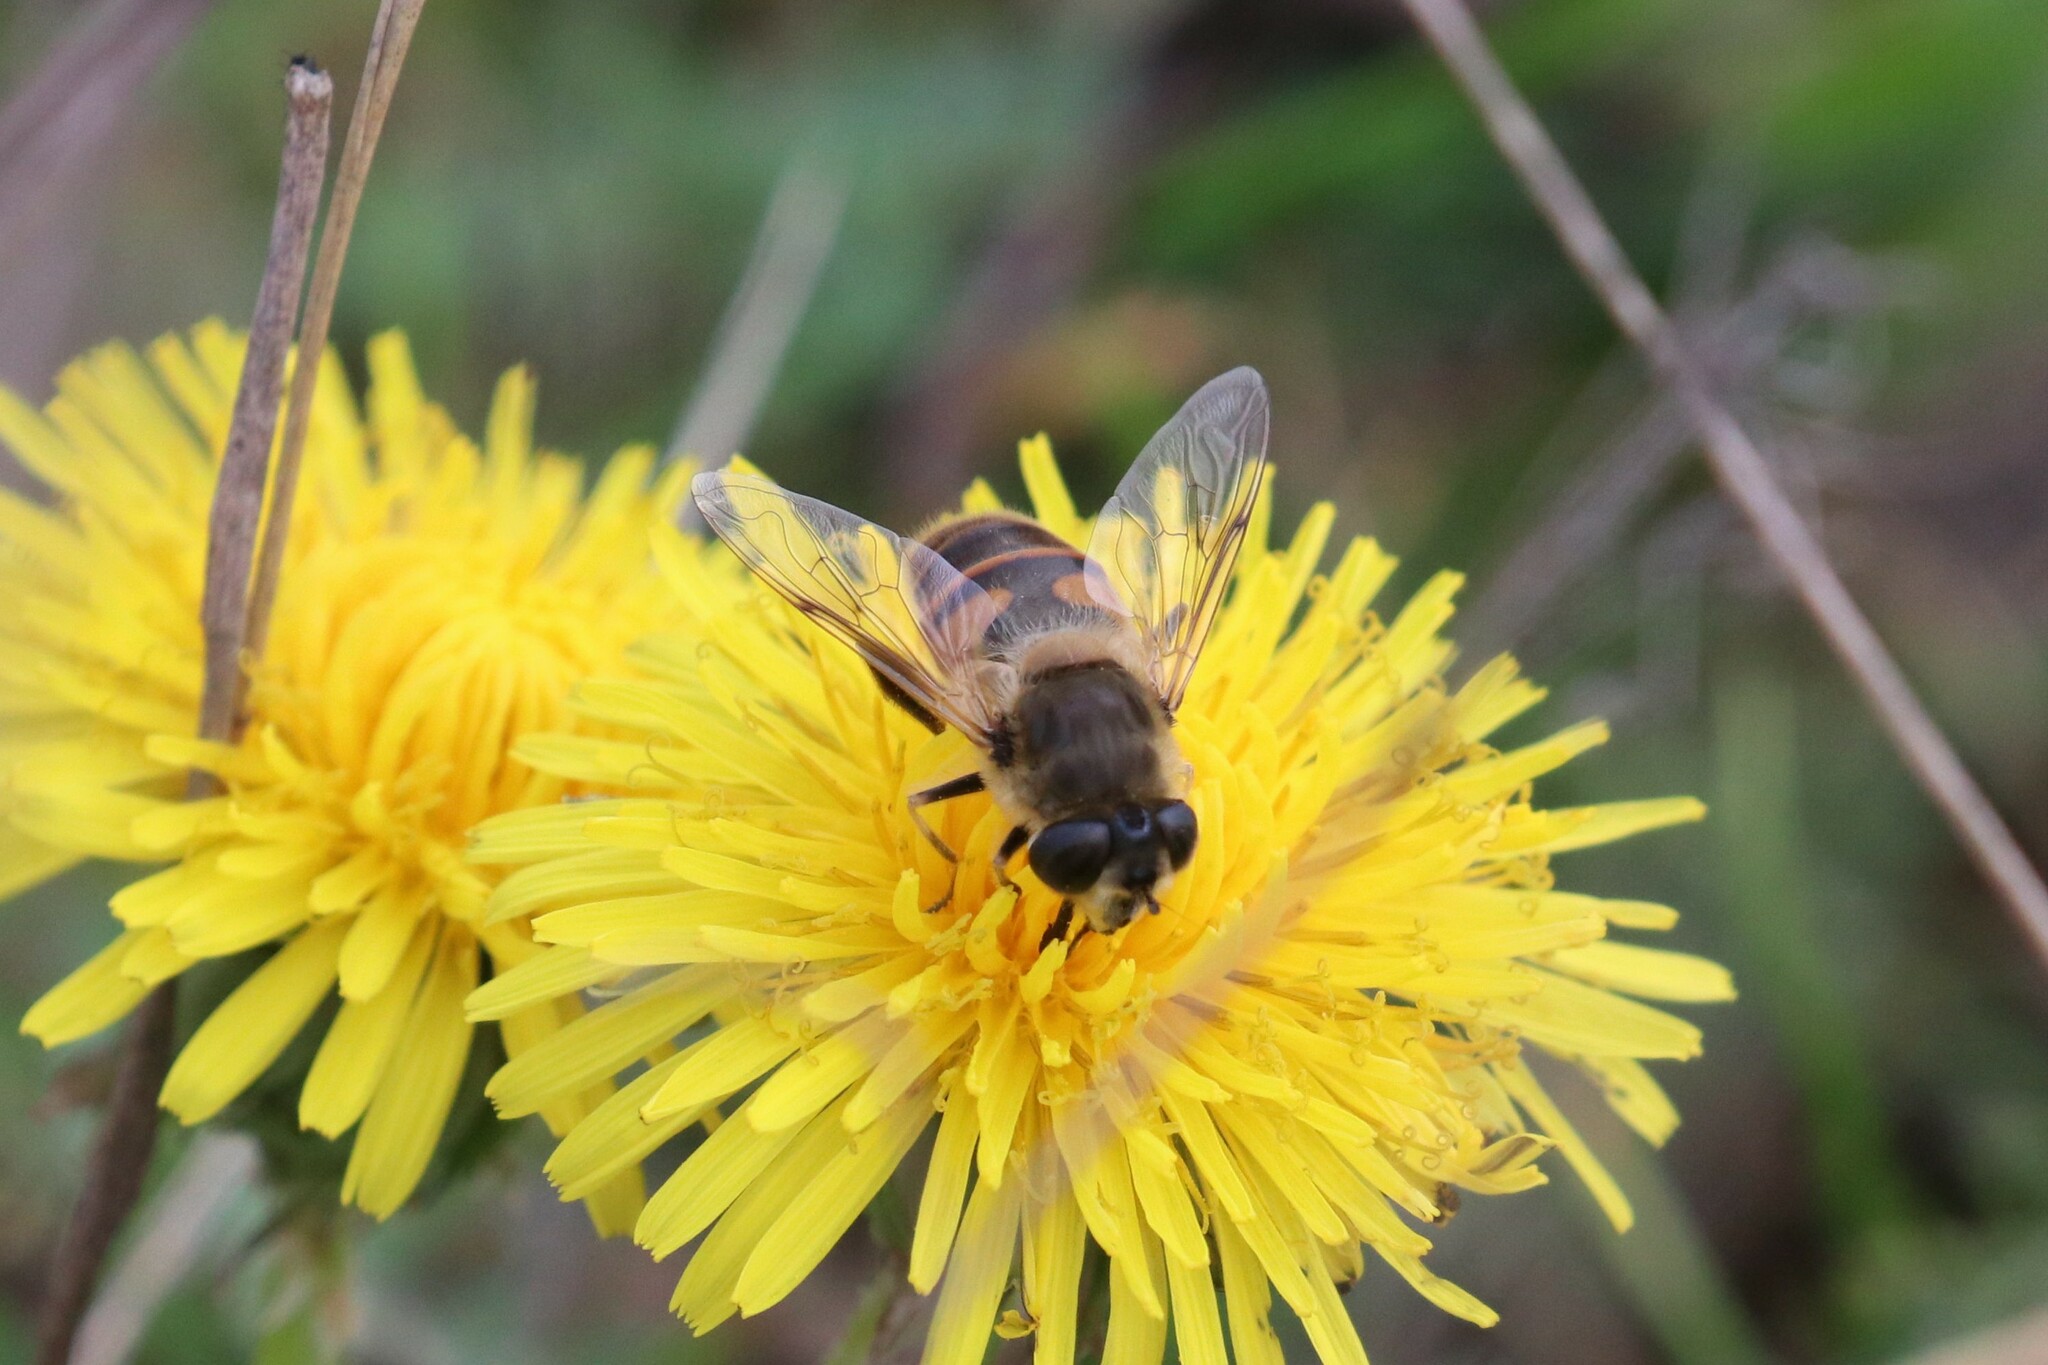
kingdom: Animalia
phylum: Arthropoda
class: Insecta
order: Diptera
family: Syrphidae
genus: Eristalis
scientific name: Eristalis tenax
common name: Drone fly
